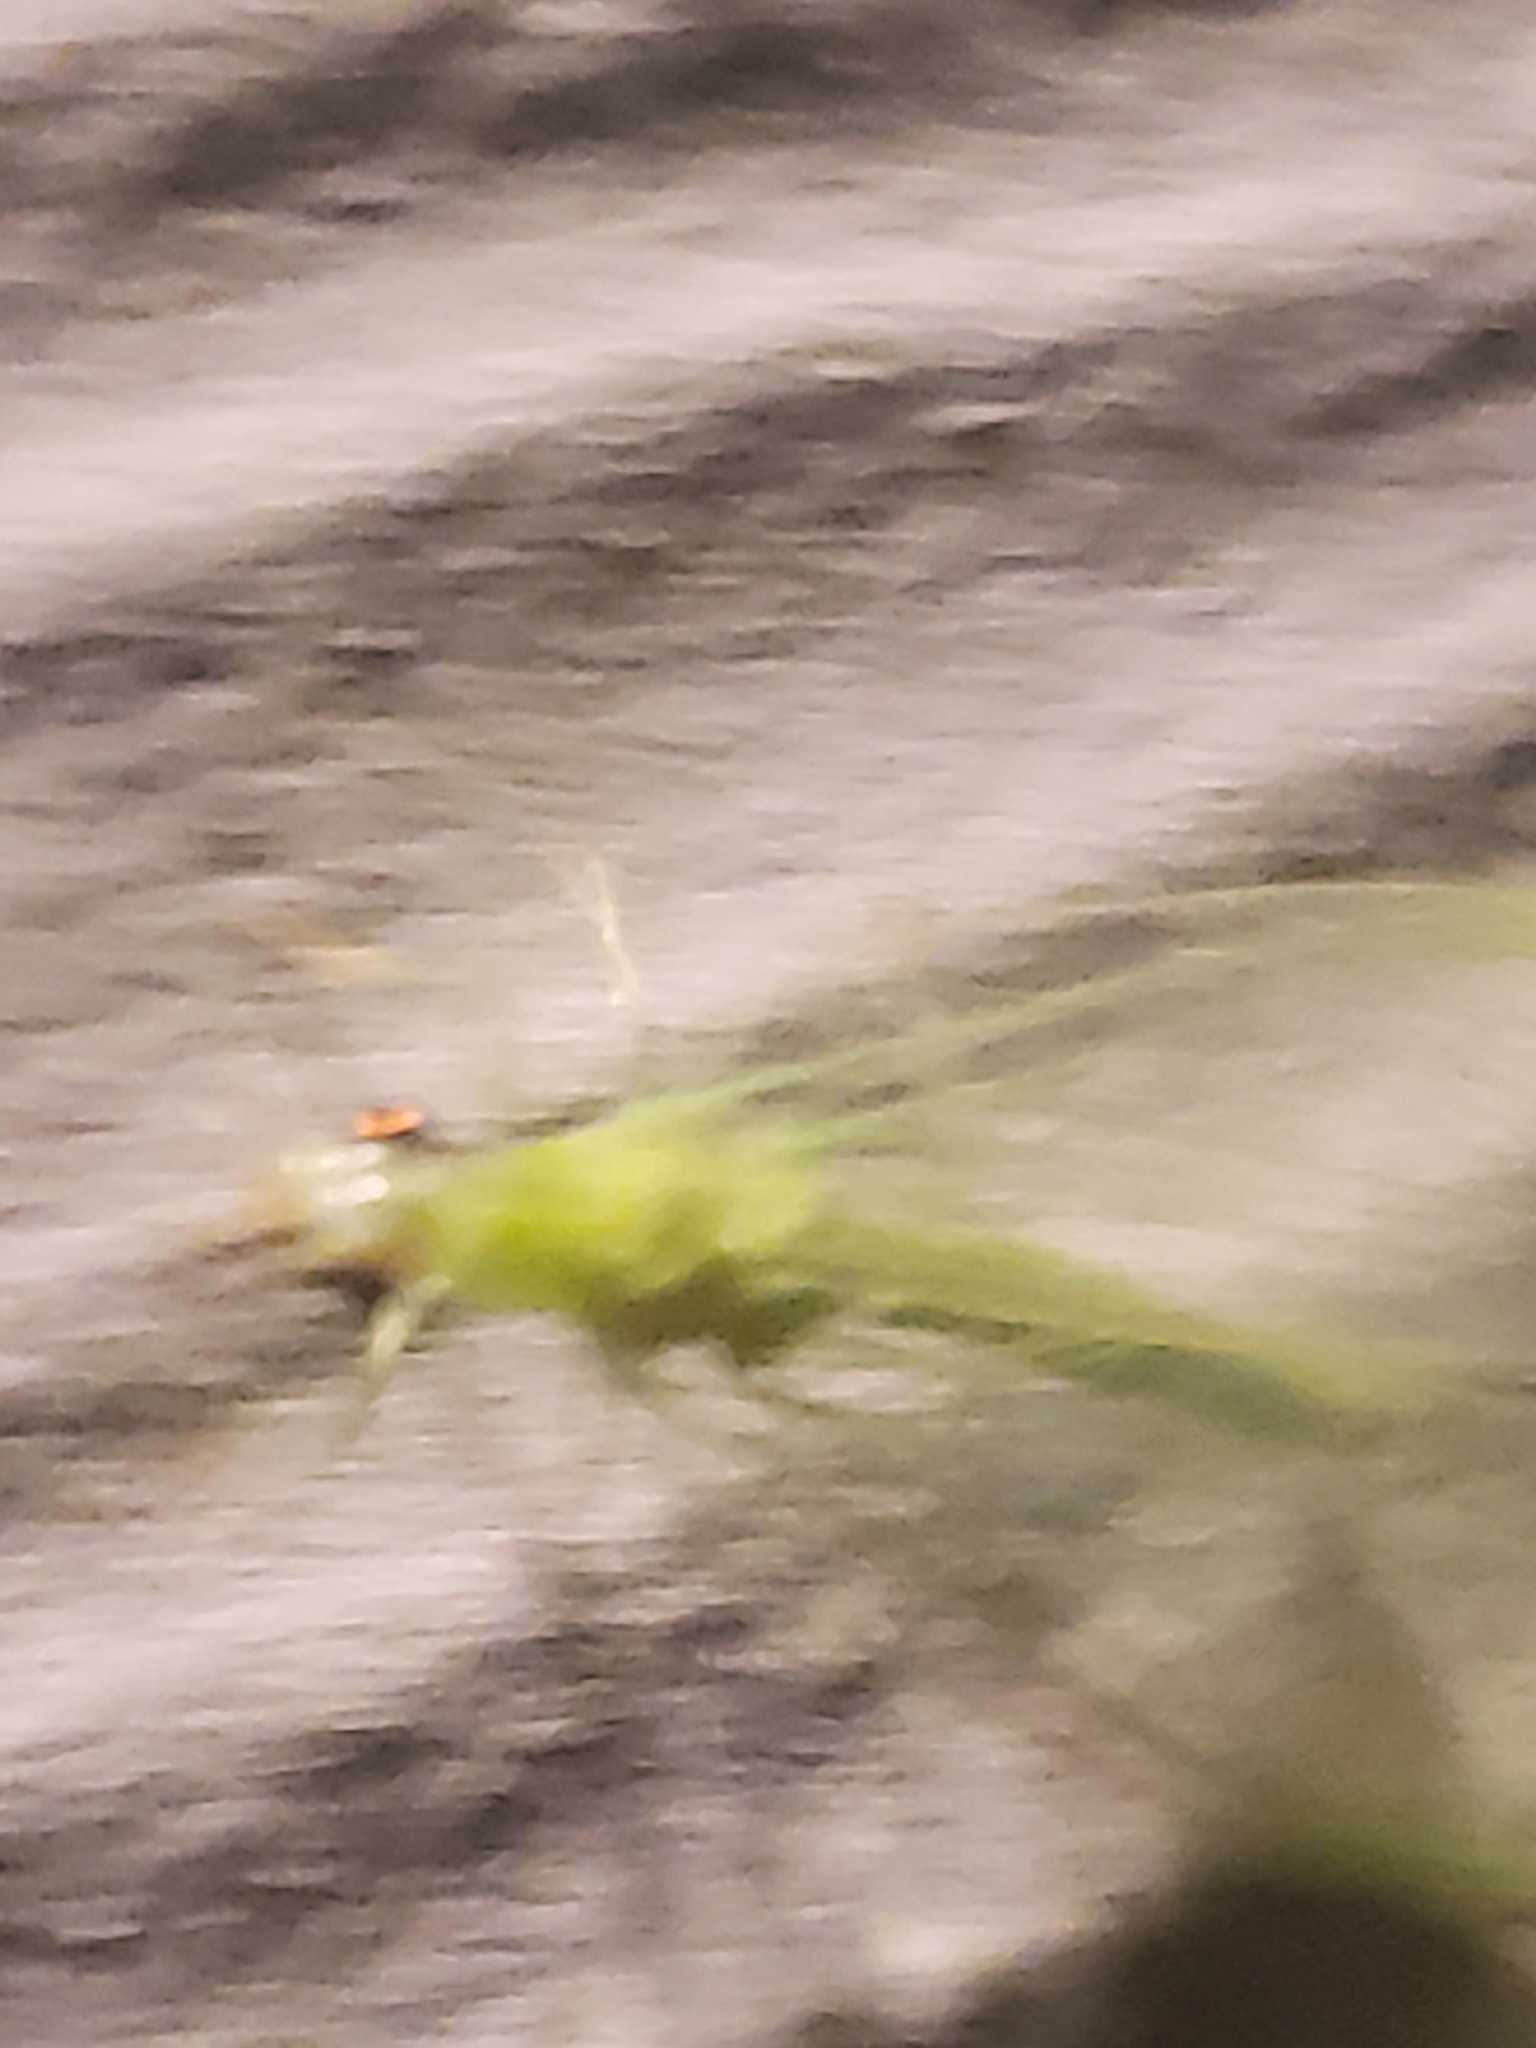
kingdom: Animalia
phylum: Arthropoda
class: Insecta
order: Neuroptera
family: Chrysopidae
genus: Chrysopa
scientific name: Chrysopa nigricornis
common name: Black-horned green lacewing
